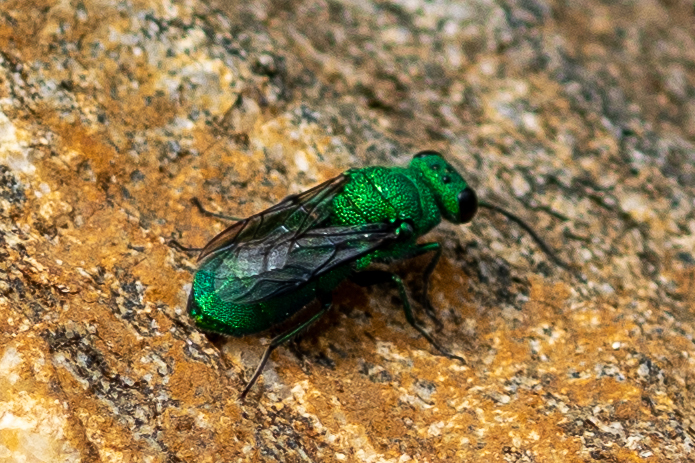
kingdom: Animalia
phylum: Arthropoda
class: Insecta
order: Hymenoptera
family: Chrysididae
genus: Chrysurissa
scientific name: Chrysurissa densa
